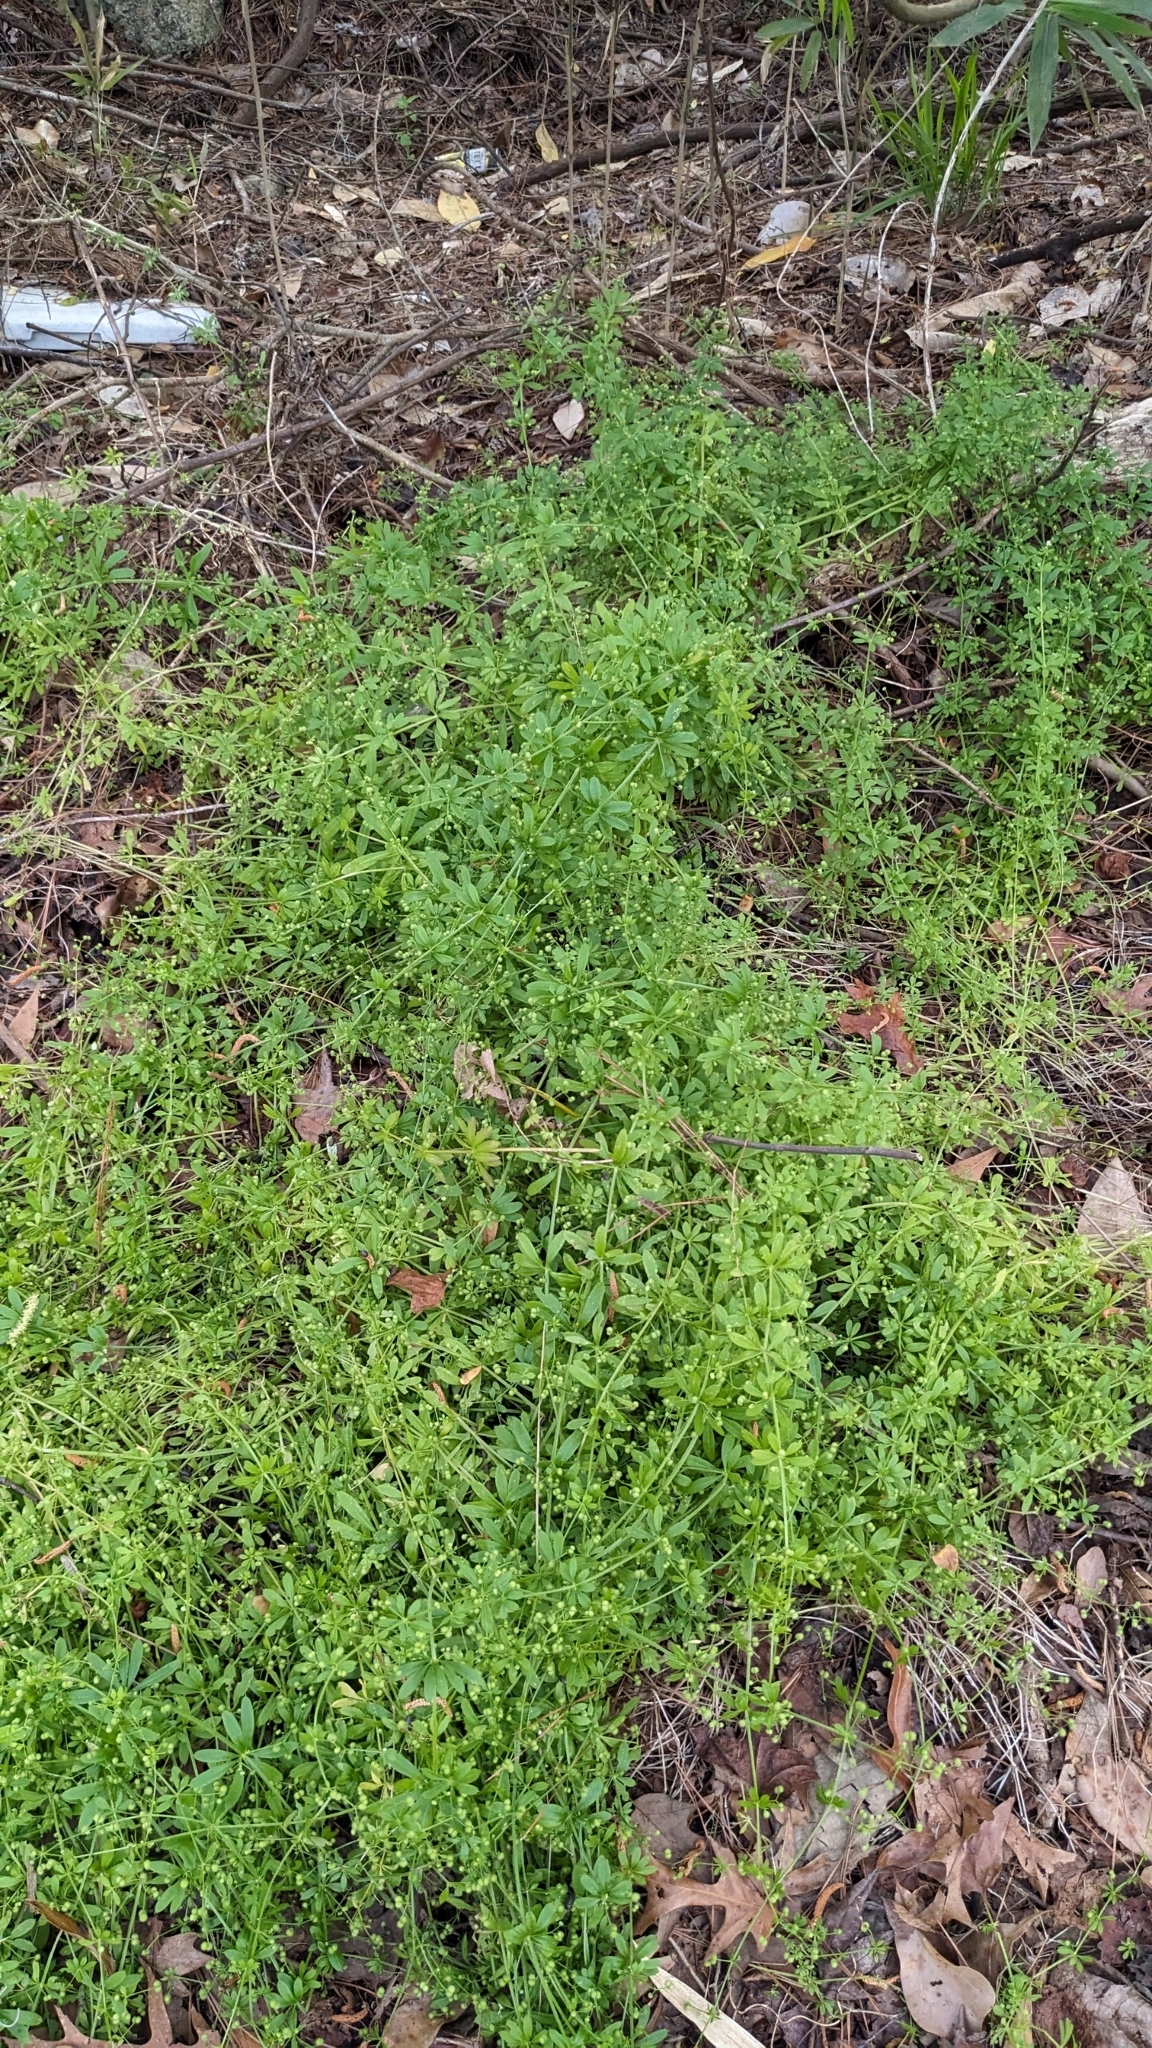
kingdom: Plantae
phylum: Tracheophyta
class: Magnoliopsida
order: Gentianales
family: Rubiaceae
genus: Galium
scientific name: Galium aparine
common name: Cleavers
